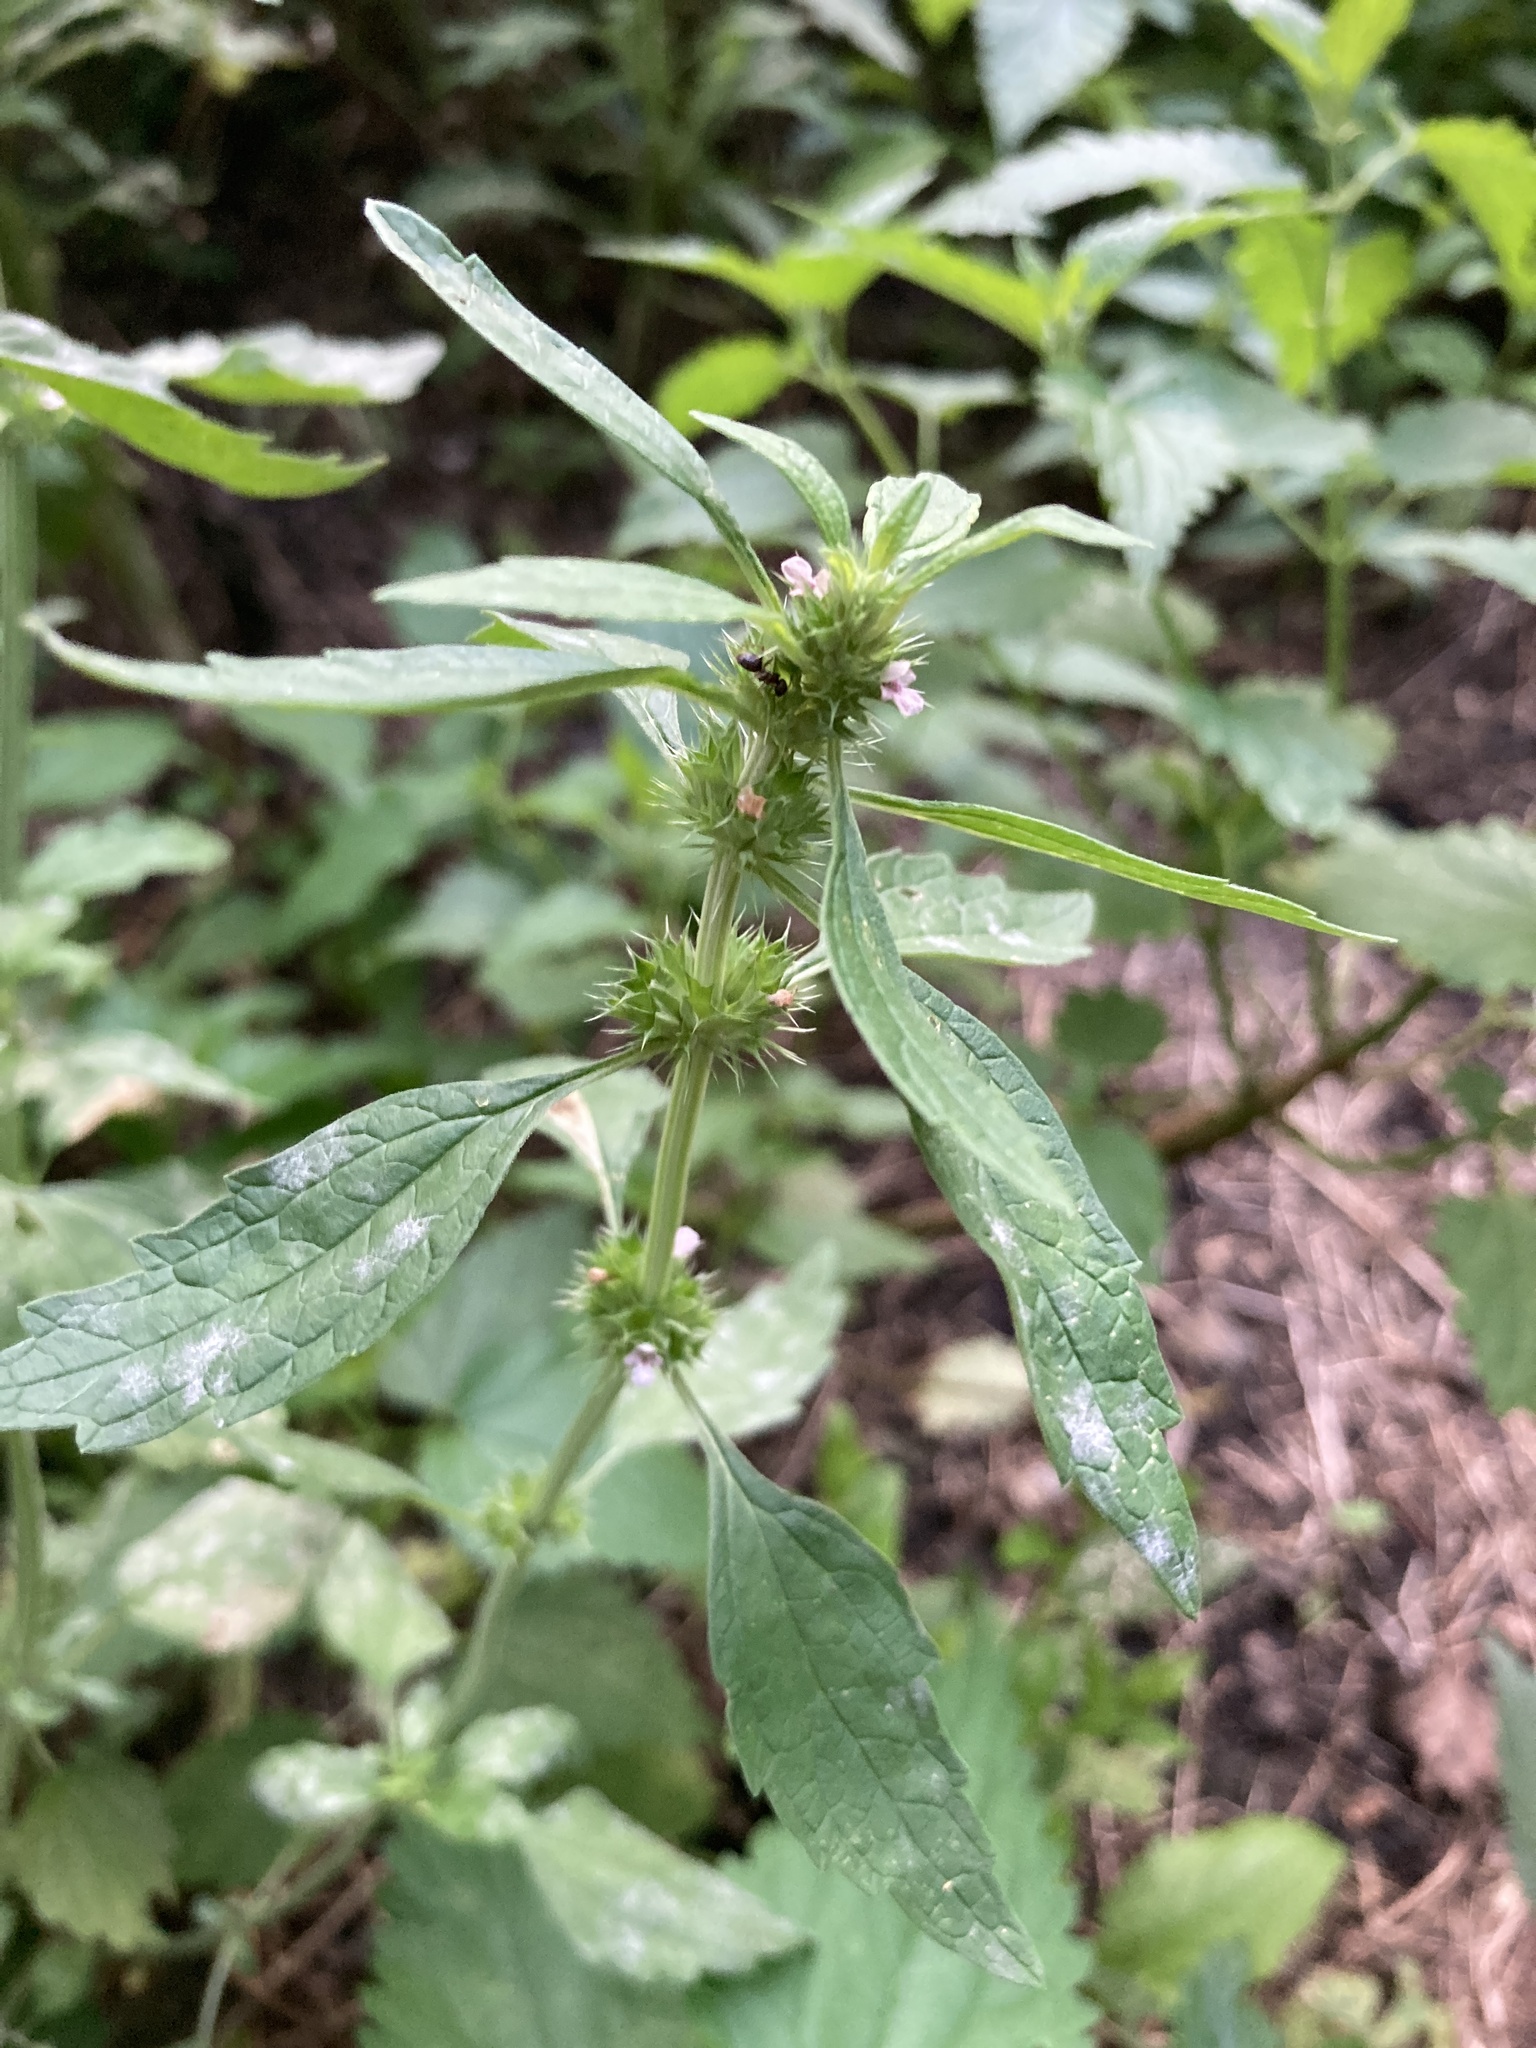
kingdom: Plantae
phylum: Tracheophyta
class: Magnoliopsida
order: Lamiales
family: Lamiaceae
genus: Lycopus
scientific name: Lycopus europaeus
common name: European bugleweed
